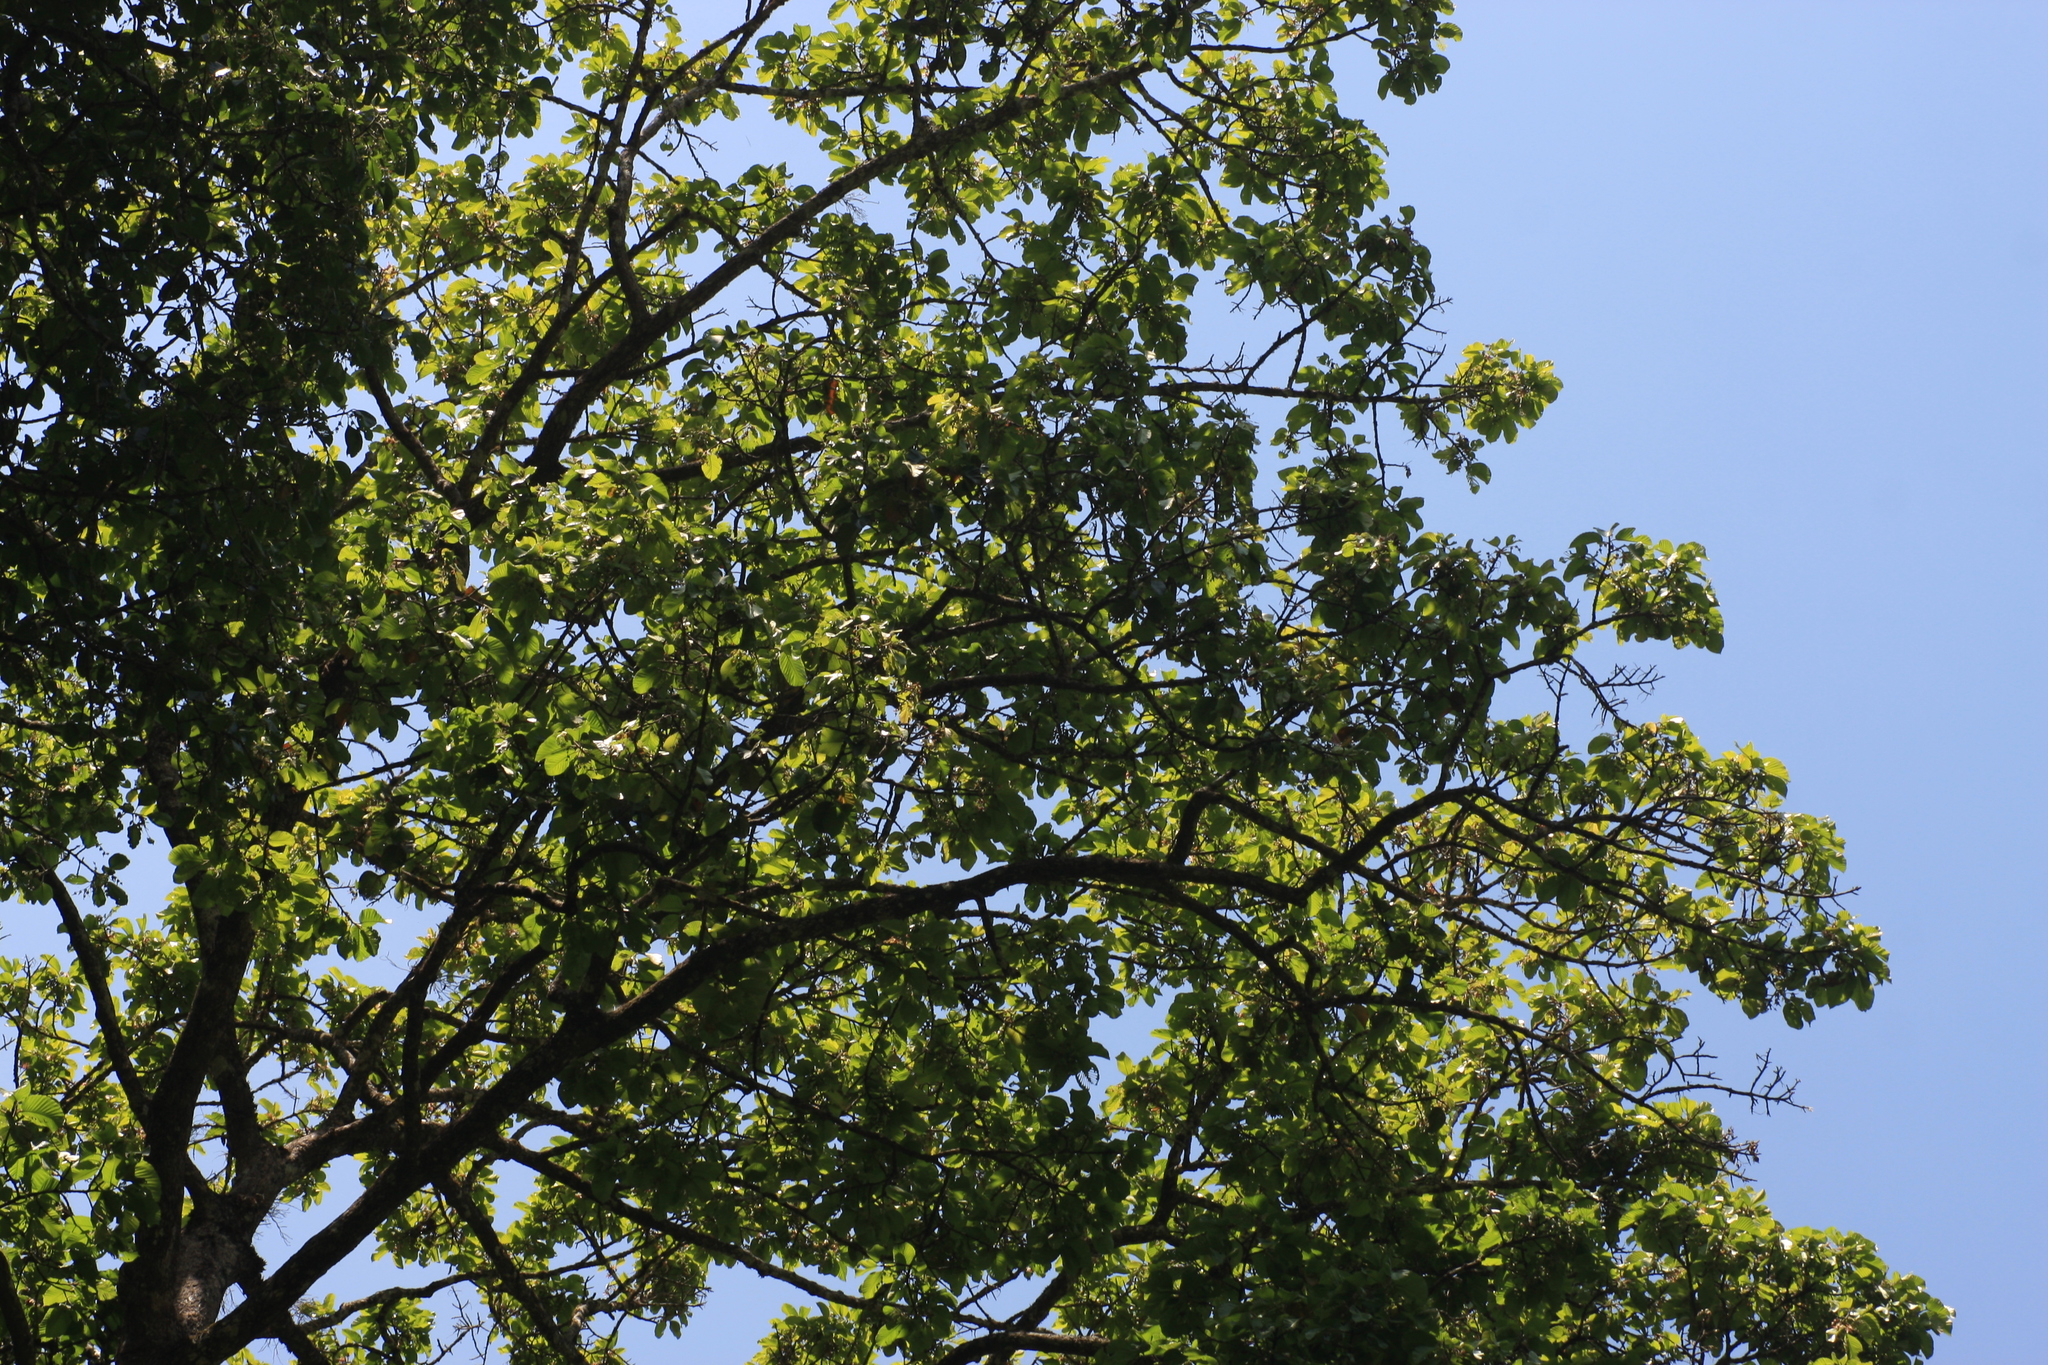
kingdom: Plantae
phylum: Tracheophyta
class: Magnoliopsida
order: Malvales
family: Dipterocarpaceae
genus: Dipterocarpus
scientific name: Dipterocarpus bourdillonii
